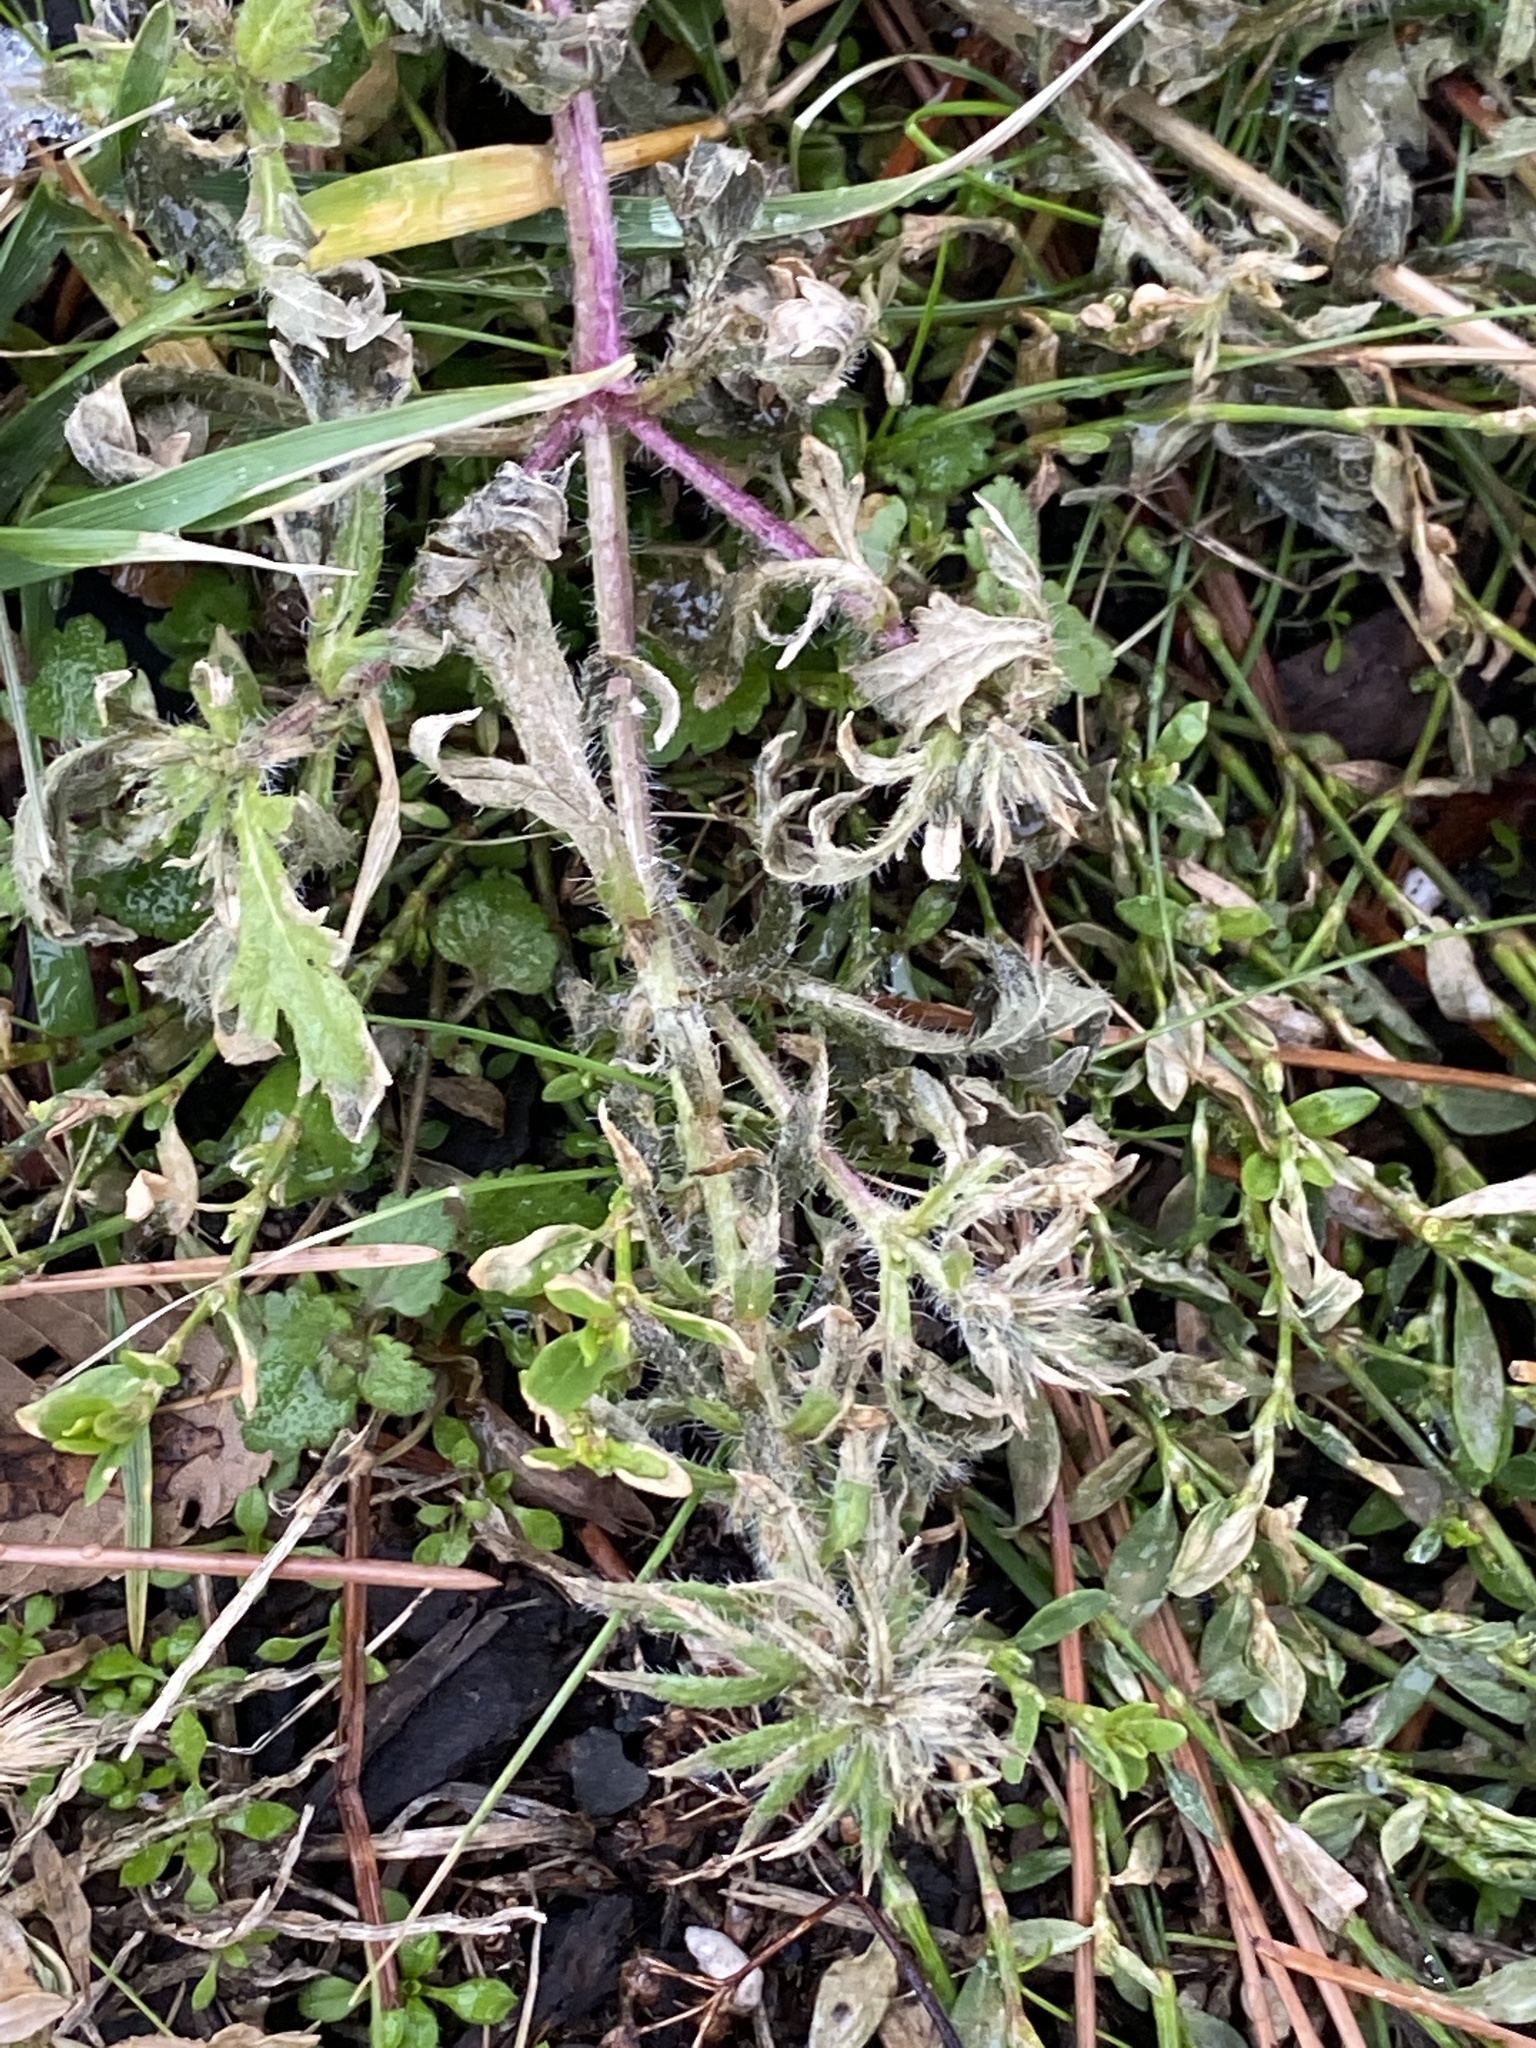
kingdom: Plantae
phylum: Tracheophyta
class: Magnoliopsida
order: Lamiales
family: Verbenaceae
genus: Verbena
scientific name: Verbena bracteata
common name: Bracted vervain
